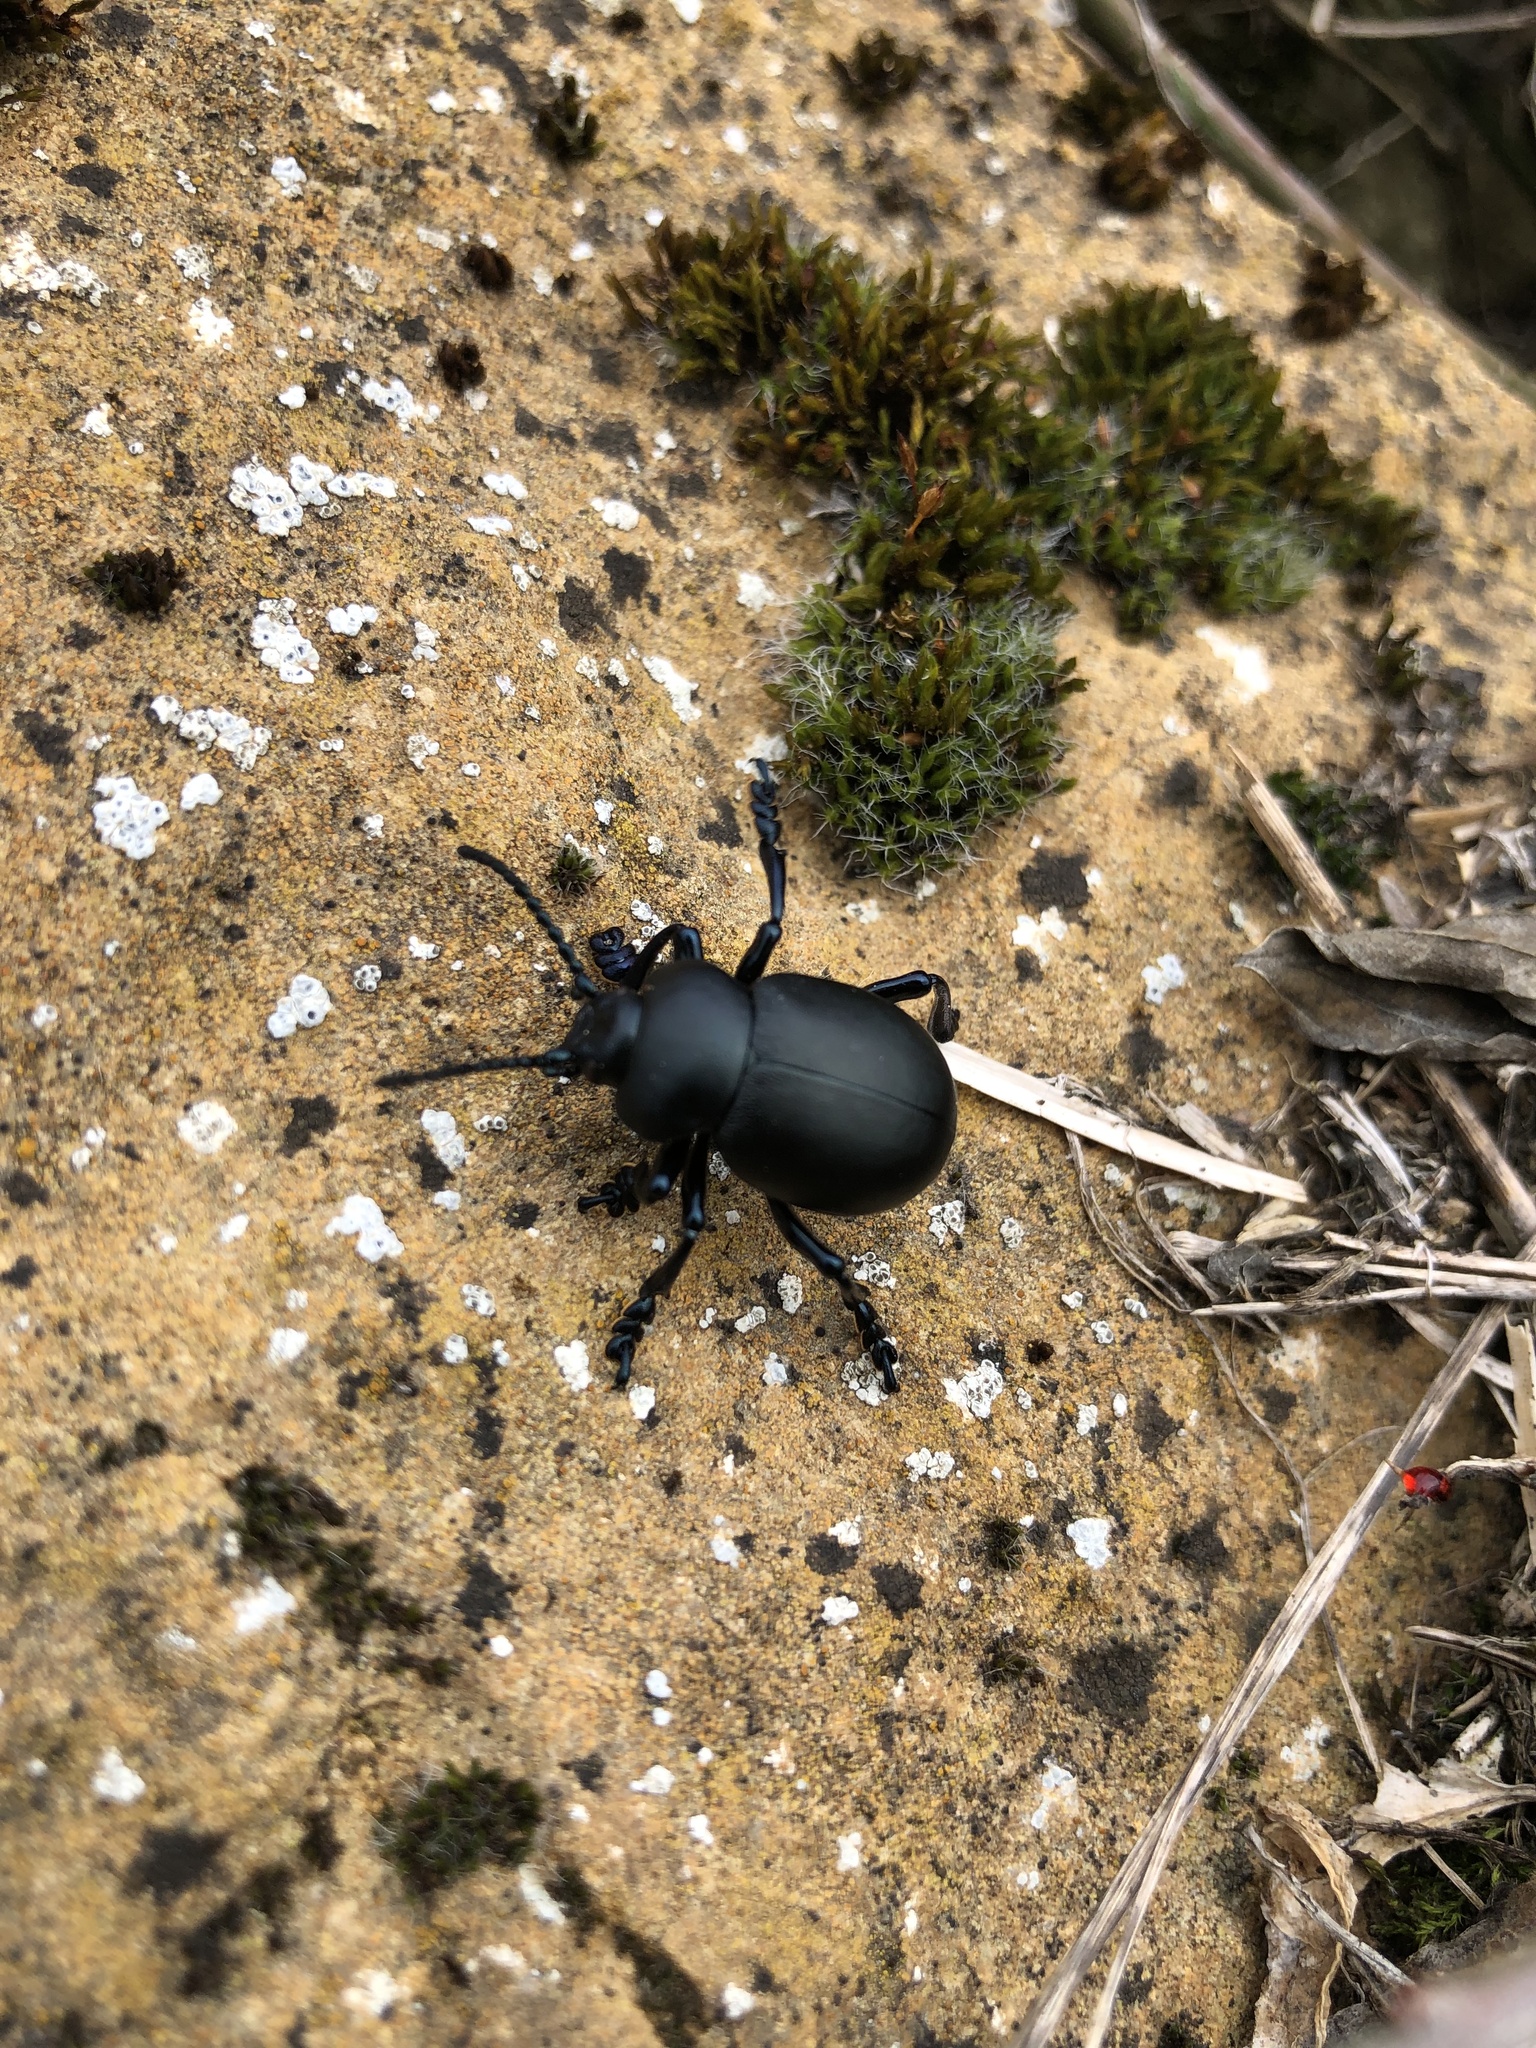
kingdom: Animalia
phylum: Arthropoda
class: Insecta
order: Coleoptera
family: Chrysomelidae
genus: Timarcha
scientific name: Timarcha tenebricosa
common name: Bloody-nosed beetle
